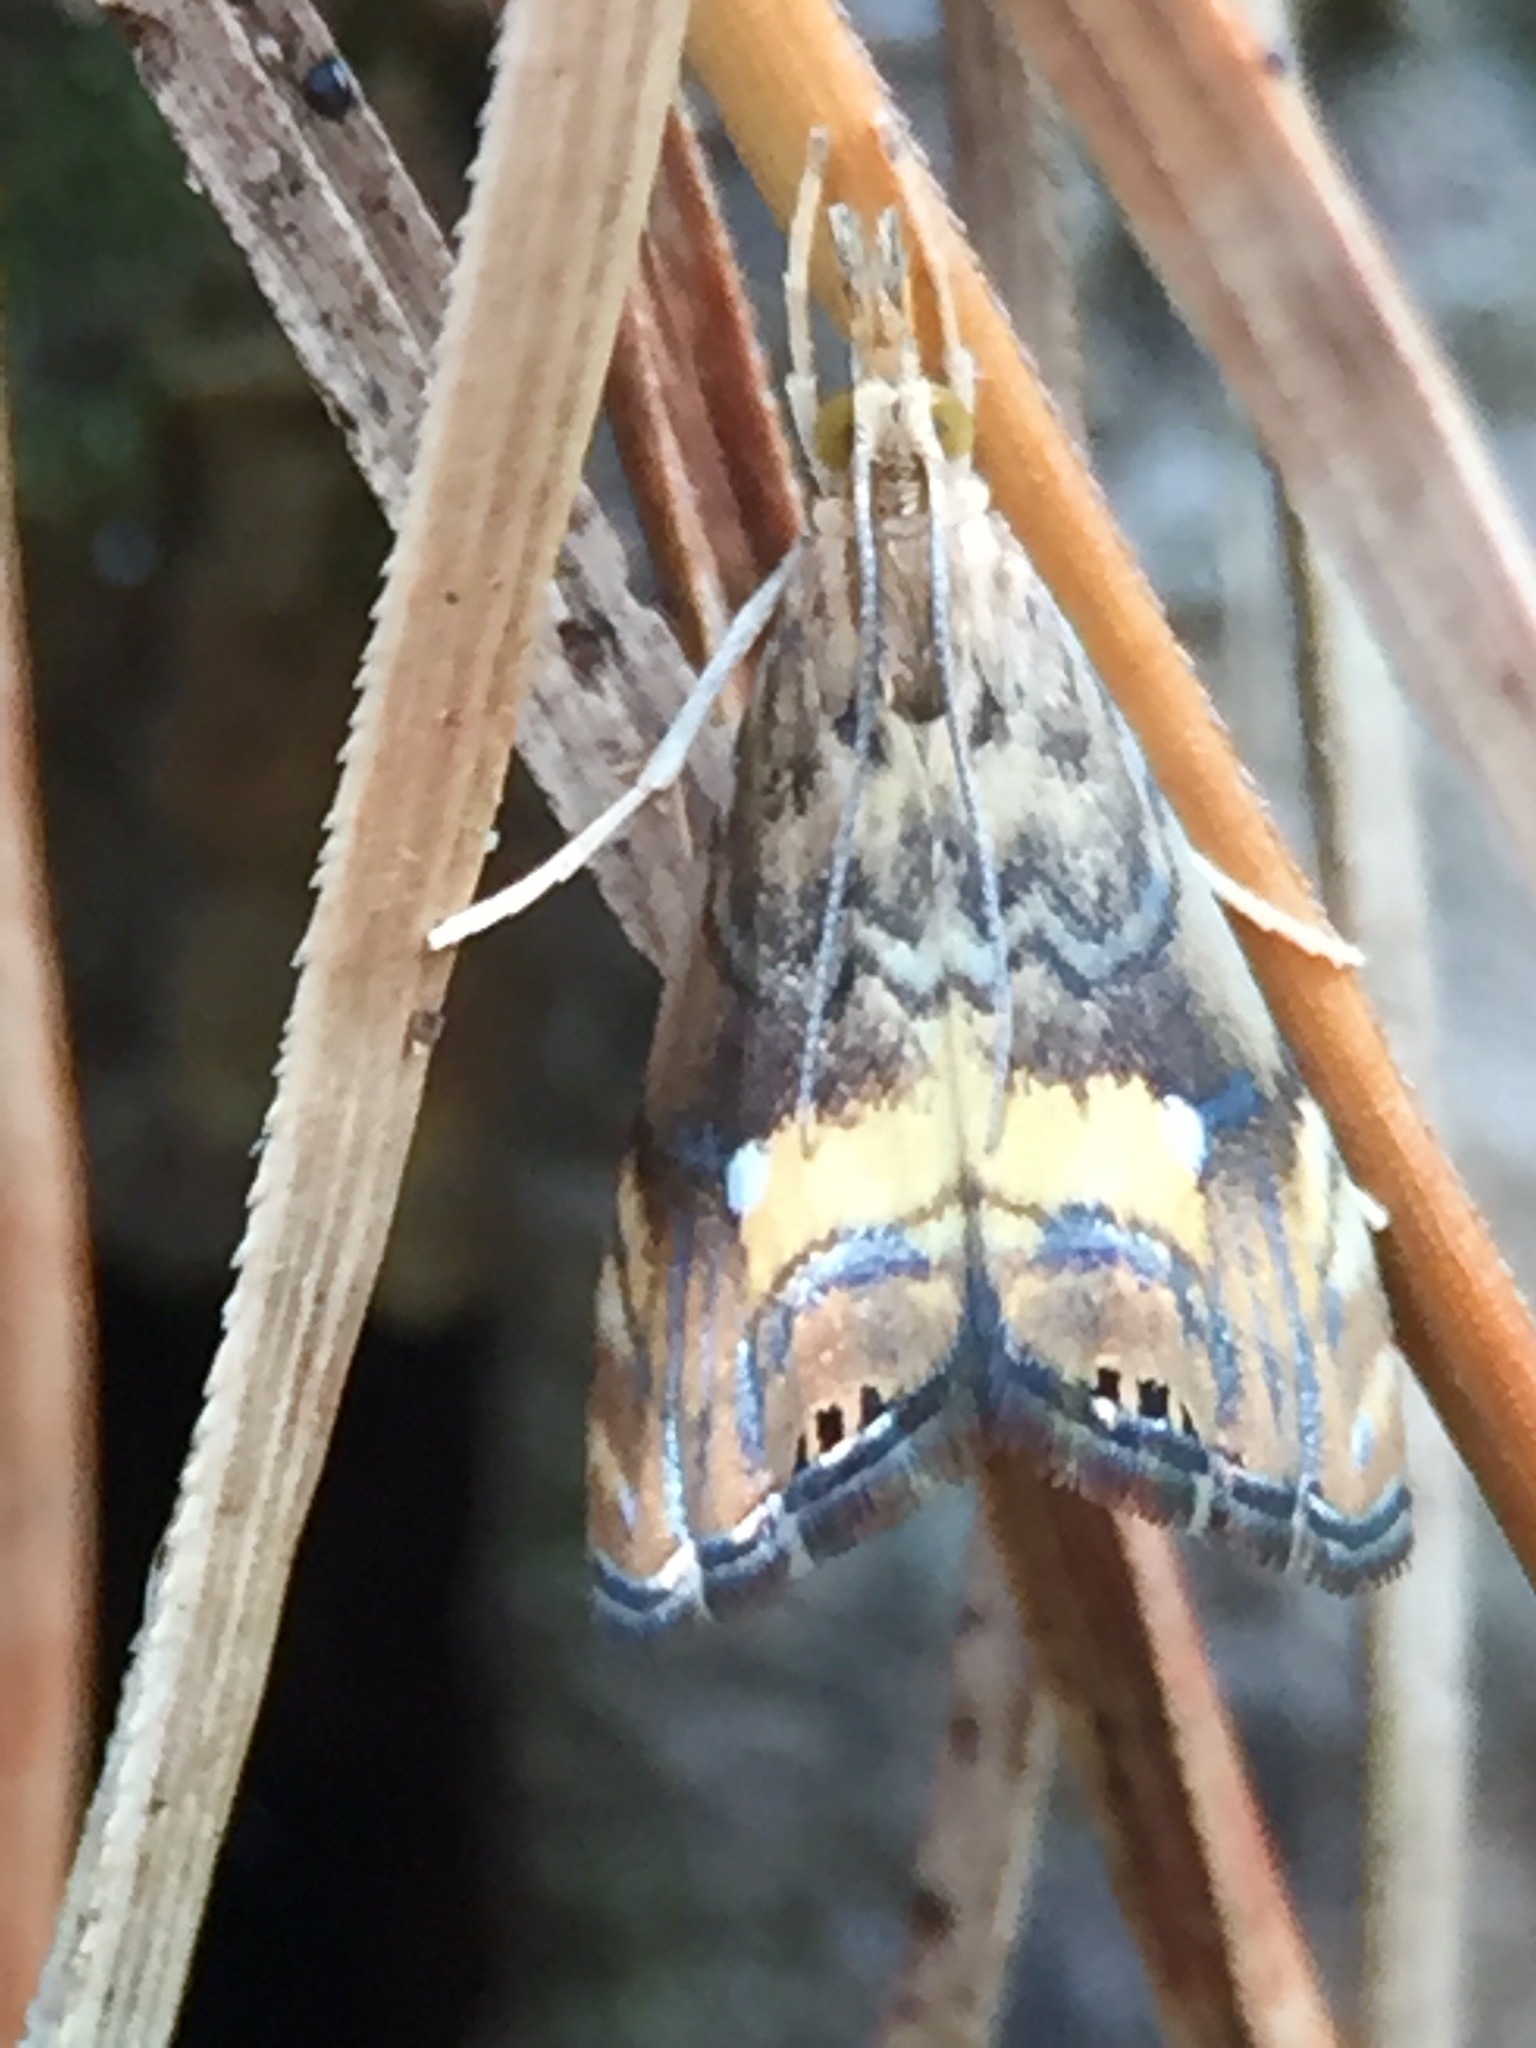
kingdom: Animalia
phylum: Arthropoda
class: Insecta
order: Lepidoptera
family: Crambidae
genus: Glaucocharis
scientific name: Glaucocharis chrysochyta
